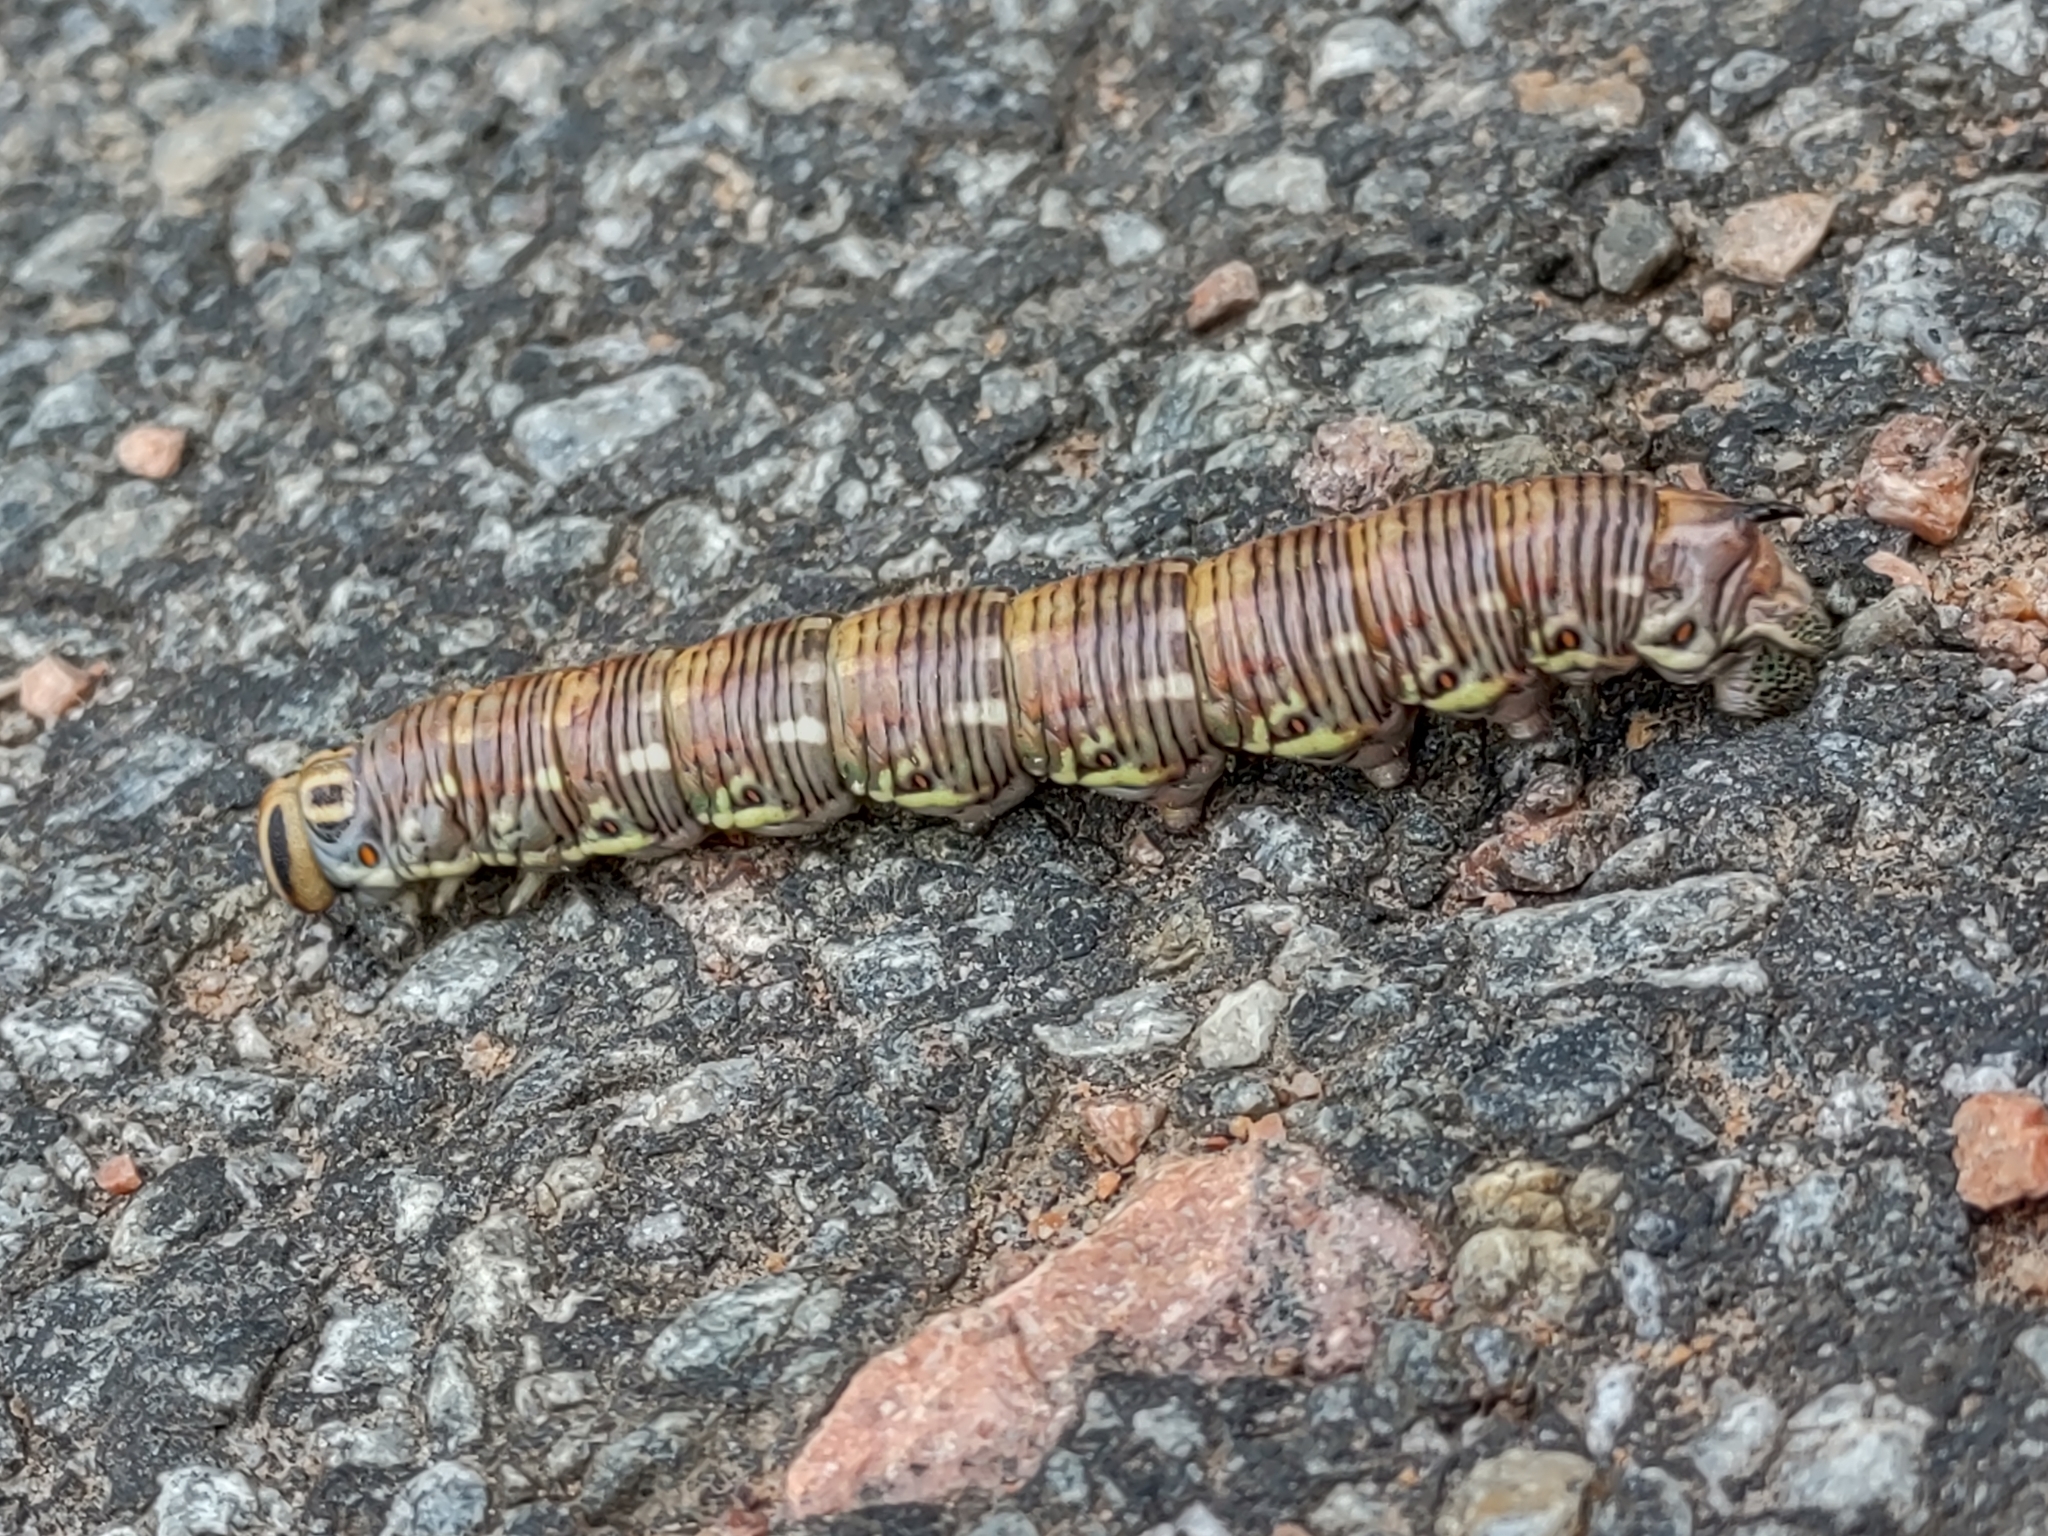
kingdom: Animalia
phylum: Arthropoda
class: Insecta
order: Lepidoptera
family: Sphingidae
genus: Sphinx
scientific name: Sphinx pinastri
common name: Pine hawk-moth
